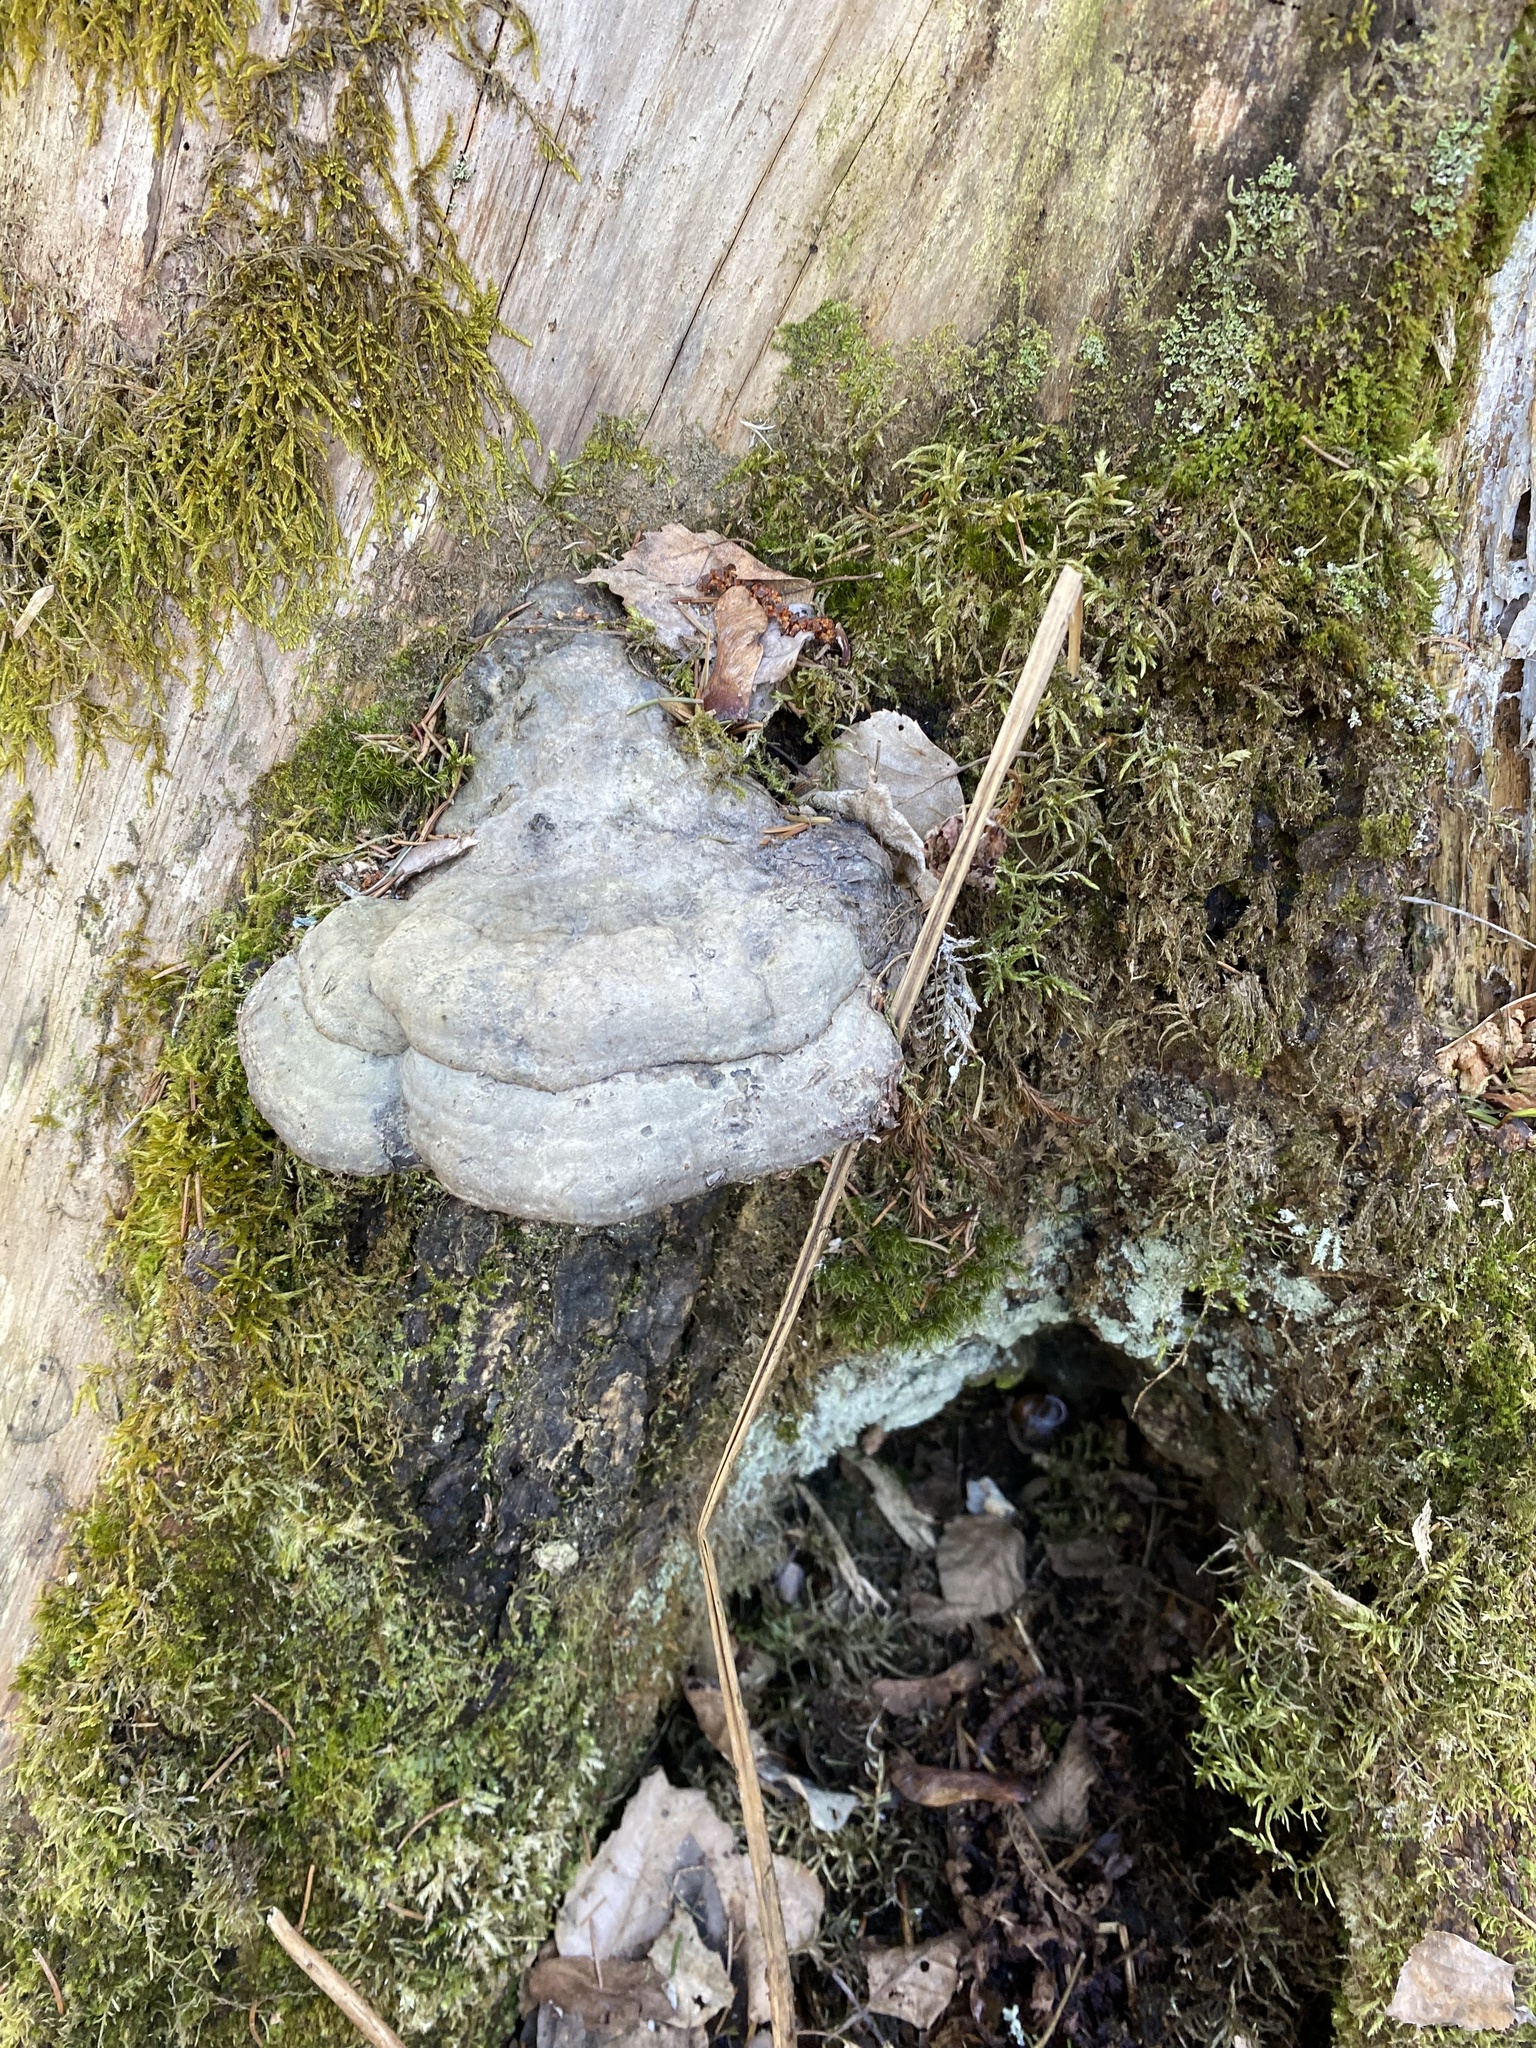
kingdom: Fungi
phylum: Basidiomycota
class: Agaricomycetes
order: Polyporales
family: Fomitopsidaceae
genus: Fomitopsis
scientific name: Fomitopsis pinicola
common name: Red-belted bracket
